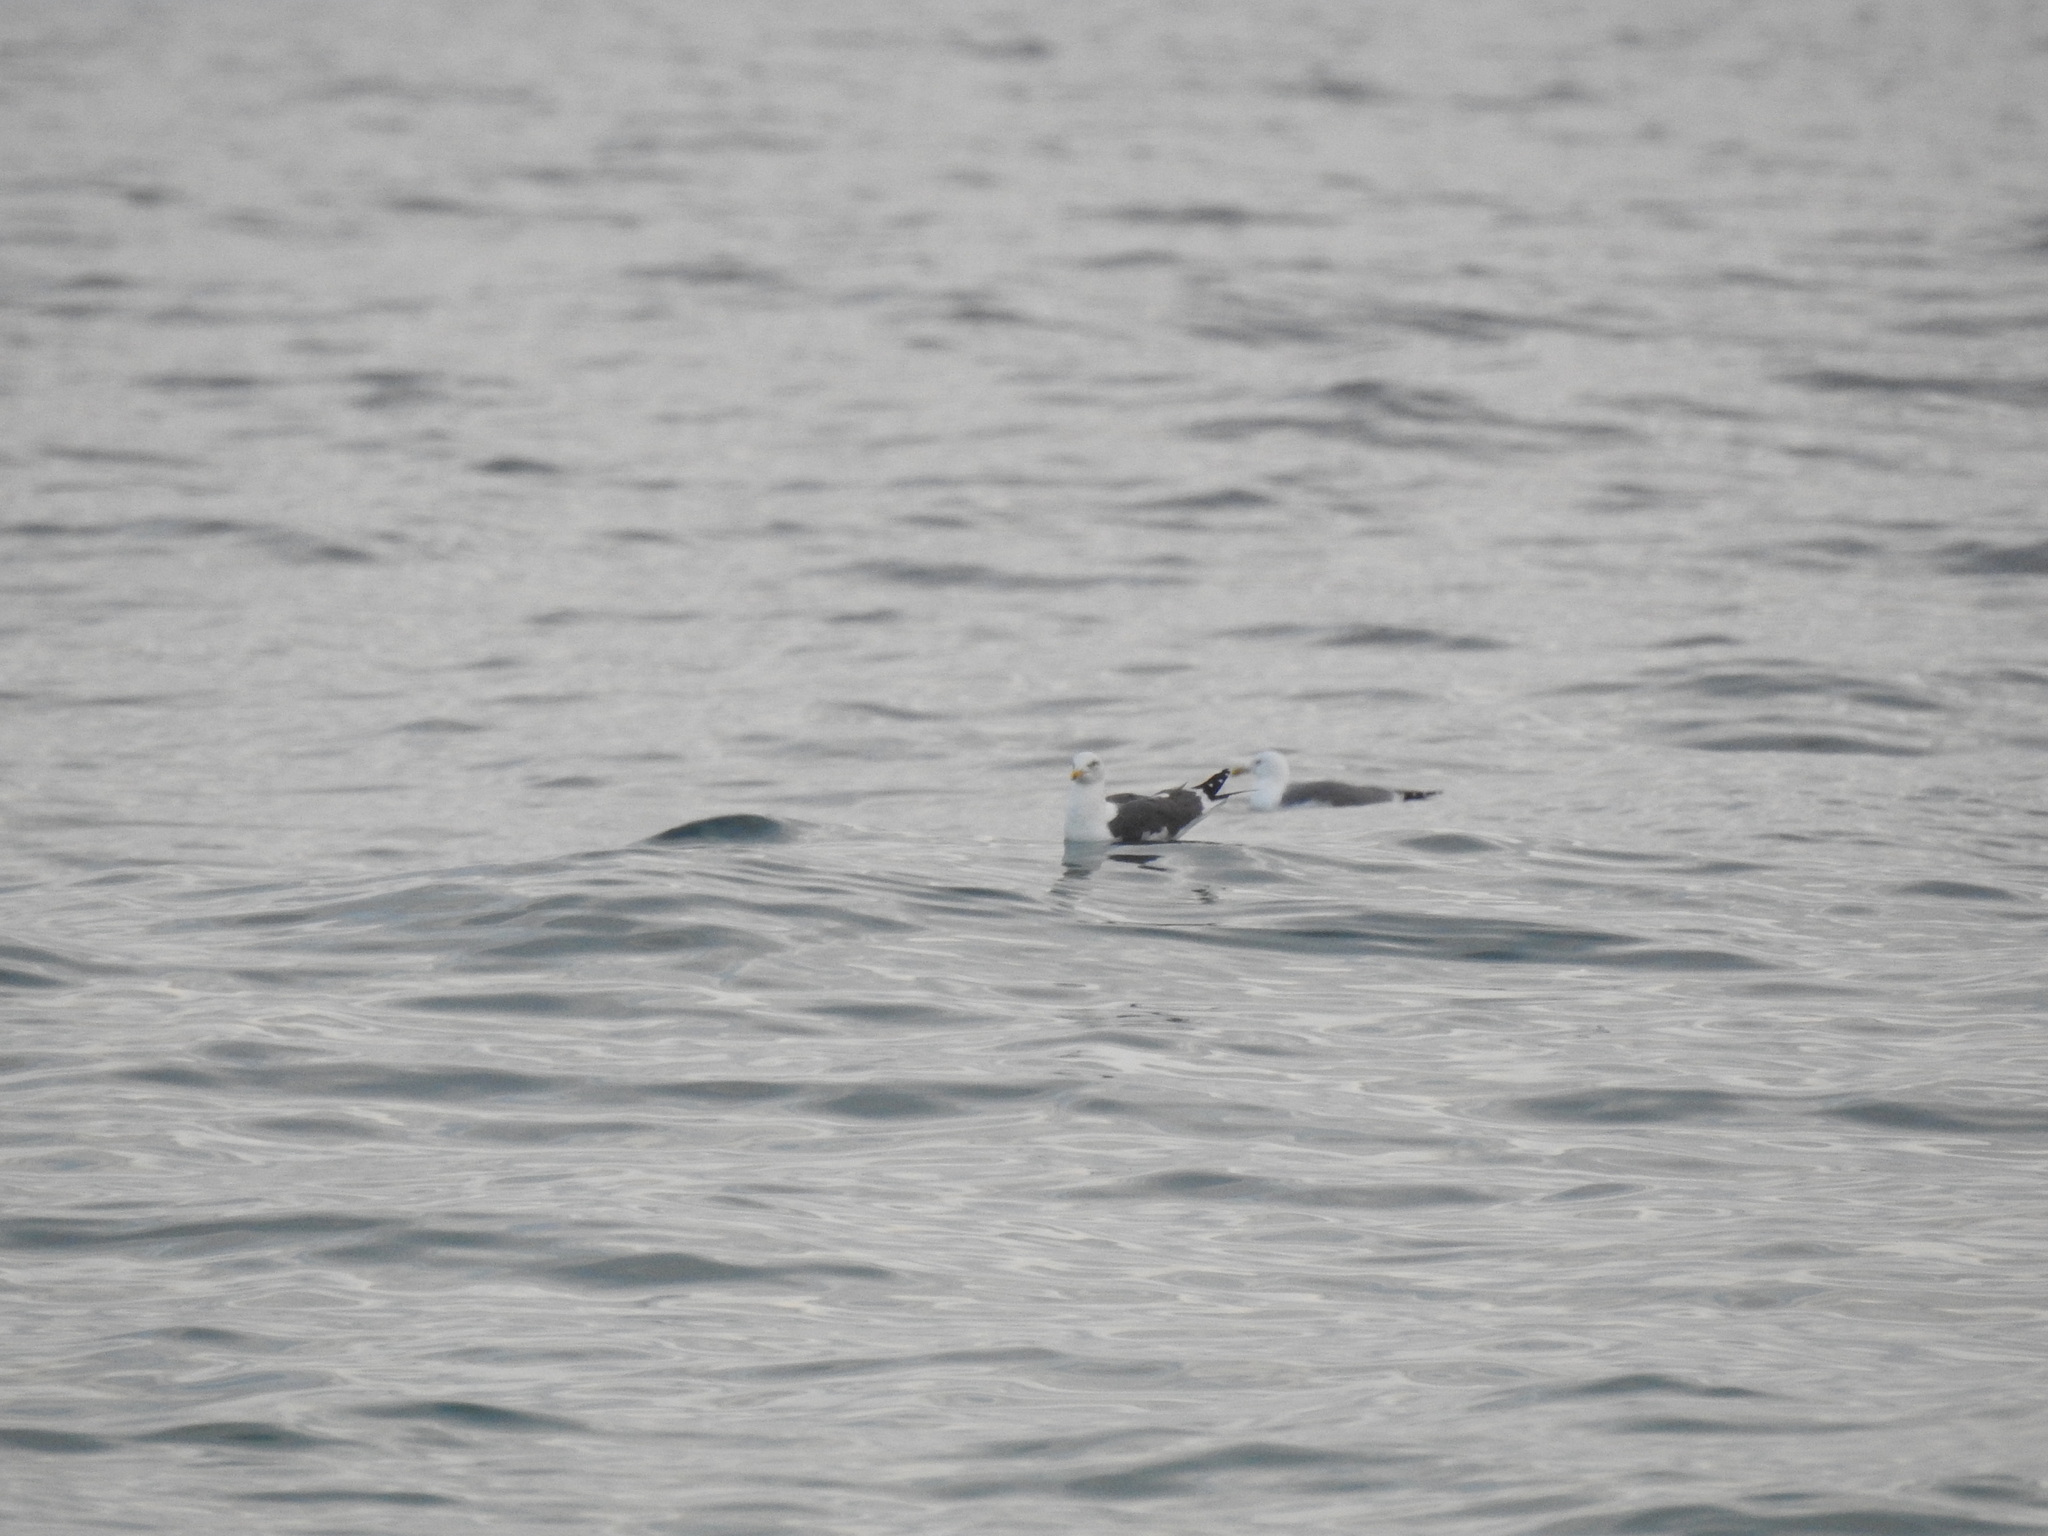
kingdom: Animalia
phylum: Chordata
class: Aves
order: Charadriiformes
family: Laridae
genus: Larus
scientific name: Larus fuscus
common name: Lesser black-backed gull
